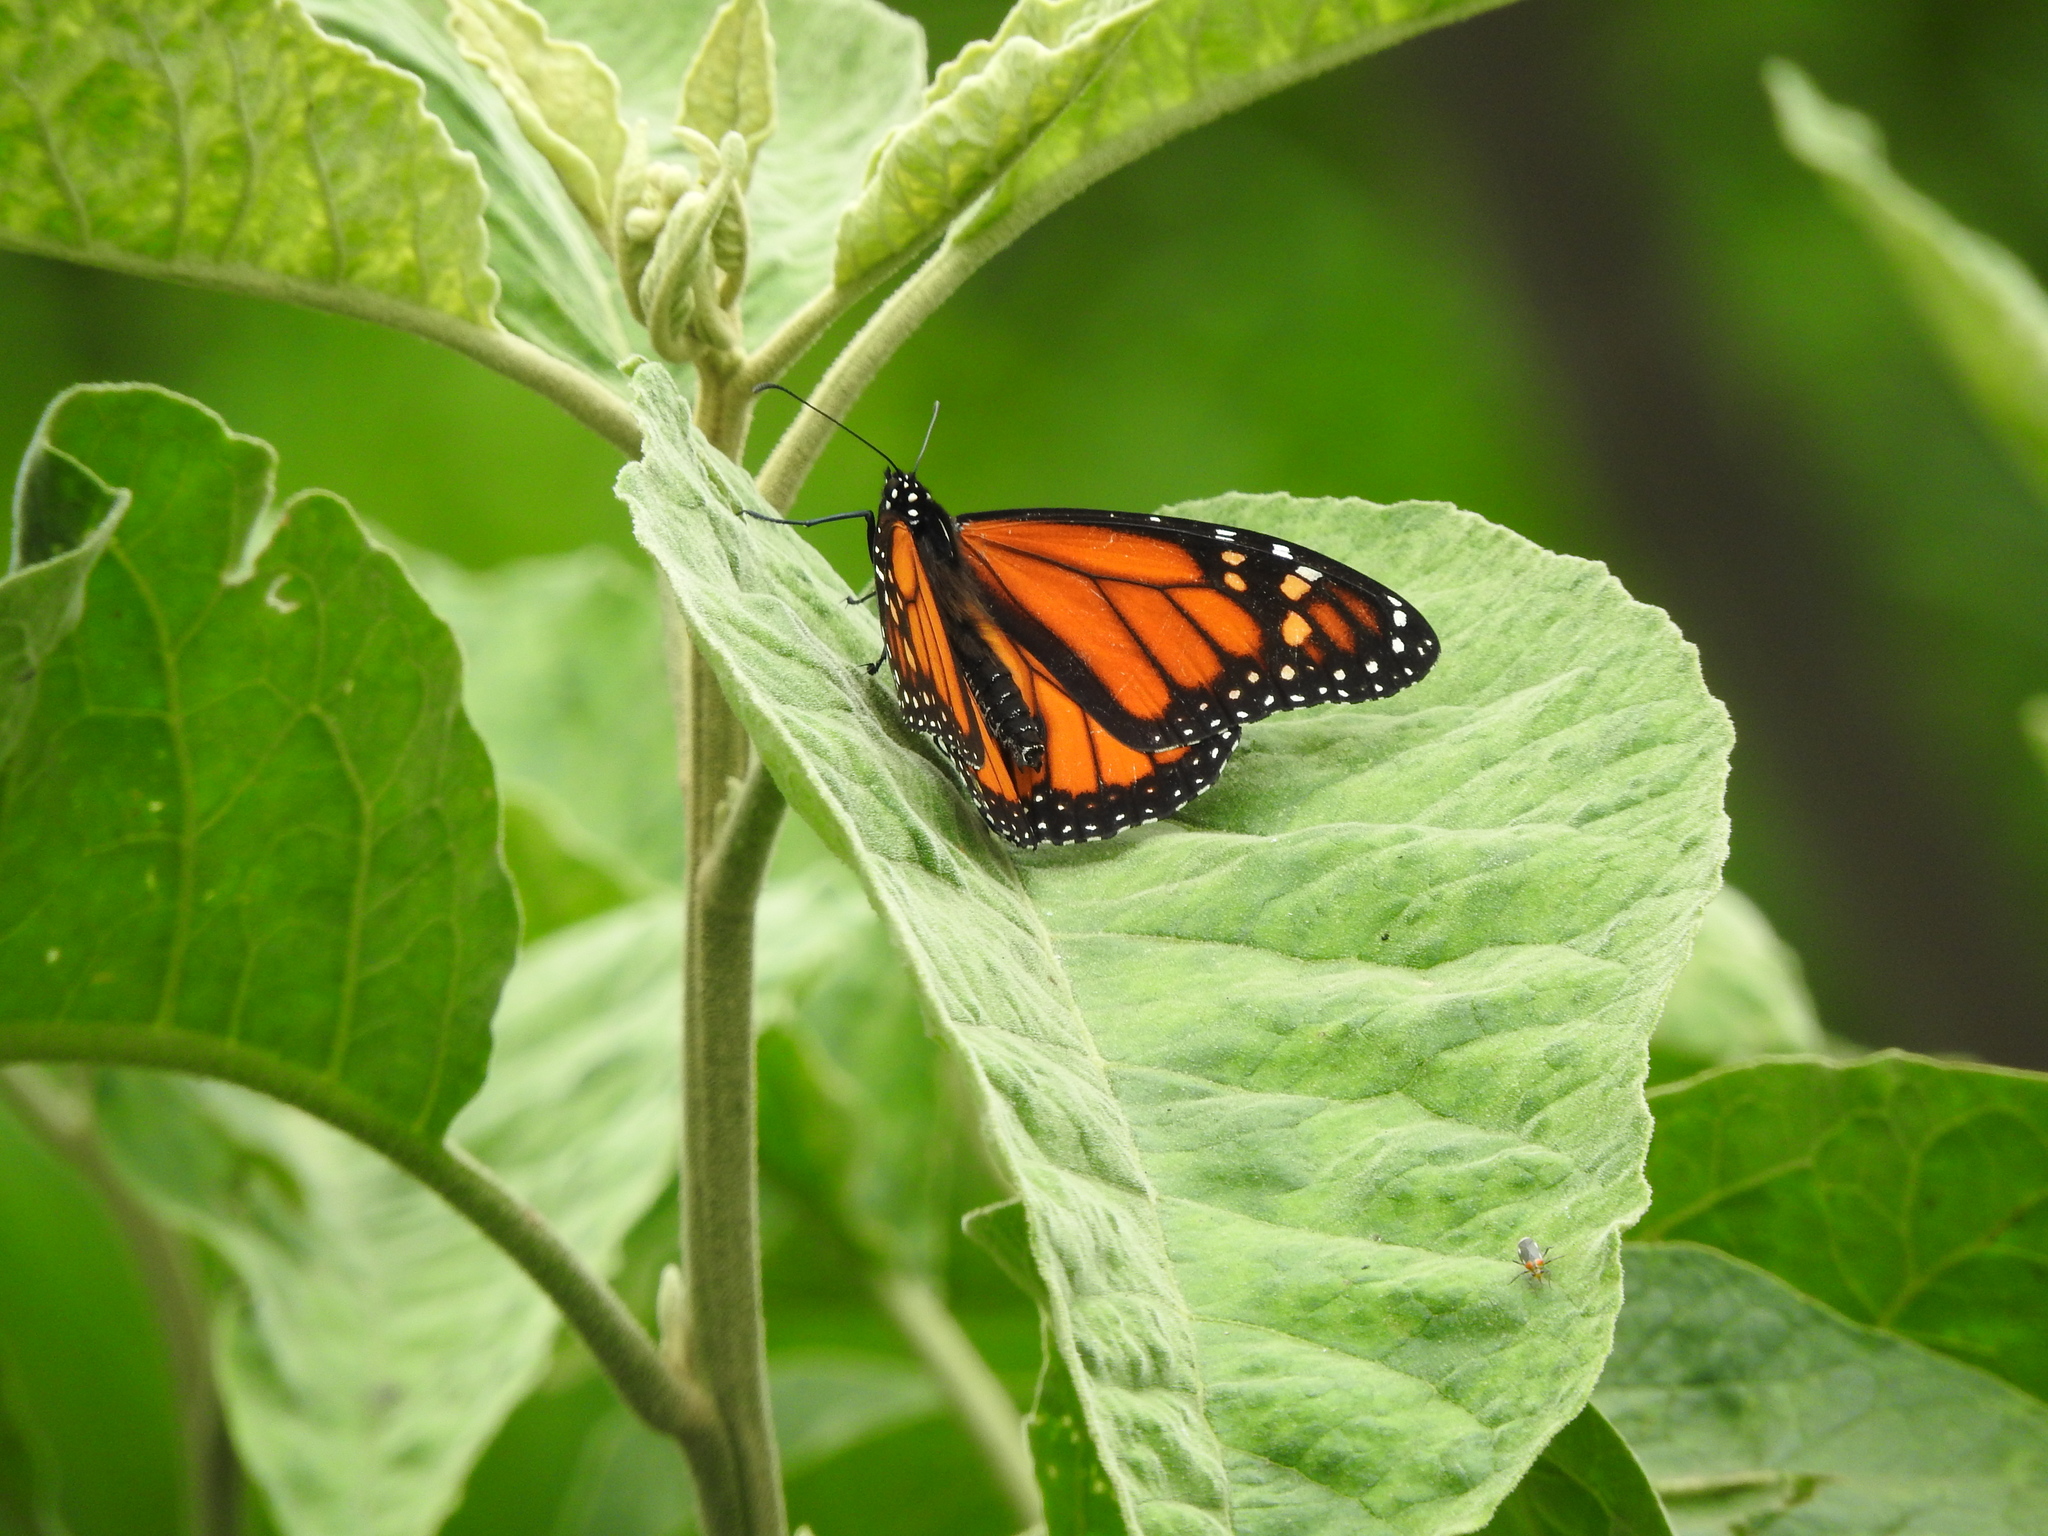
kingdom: Animalia
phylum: Arthropoda
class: Insecta
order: Lepidoptera
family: Nymphalidae
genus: Danaus
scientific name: Danaus plexippus
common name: Monarch
